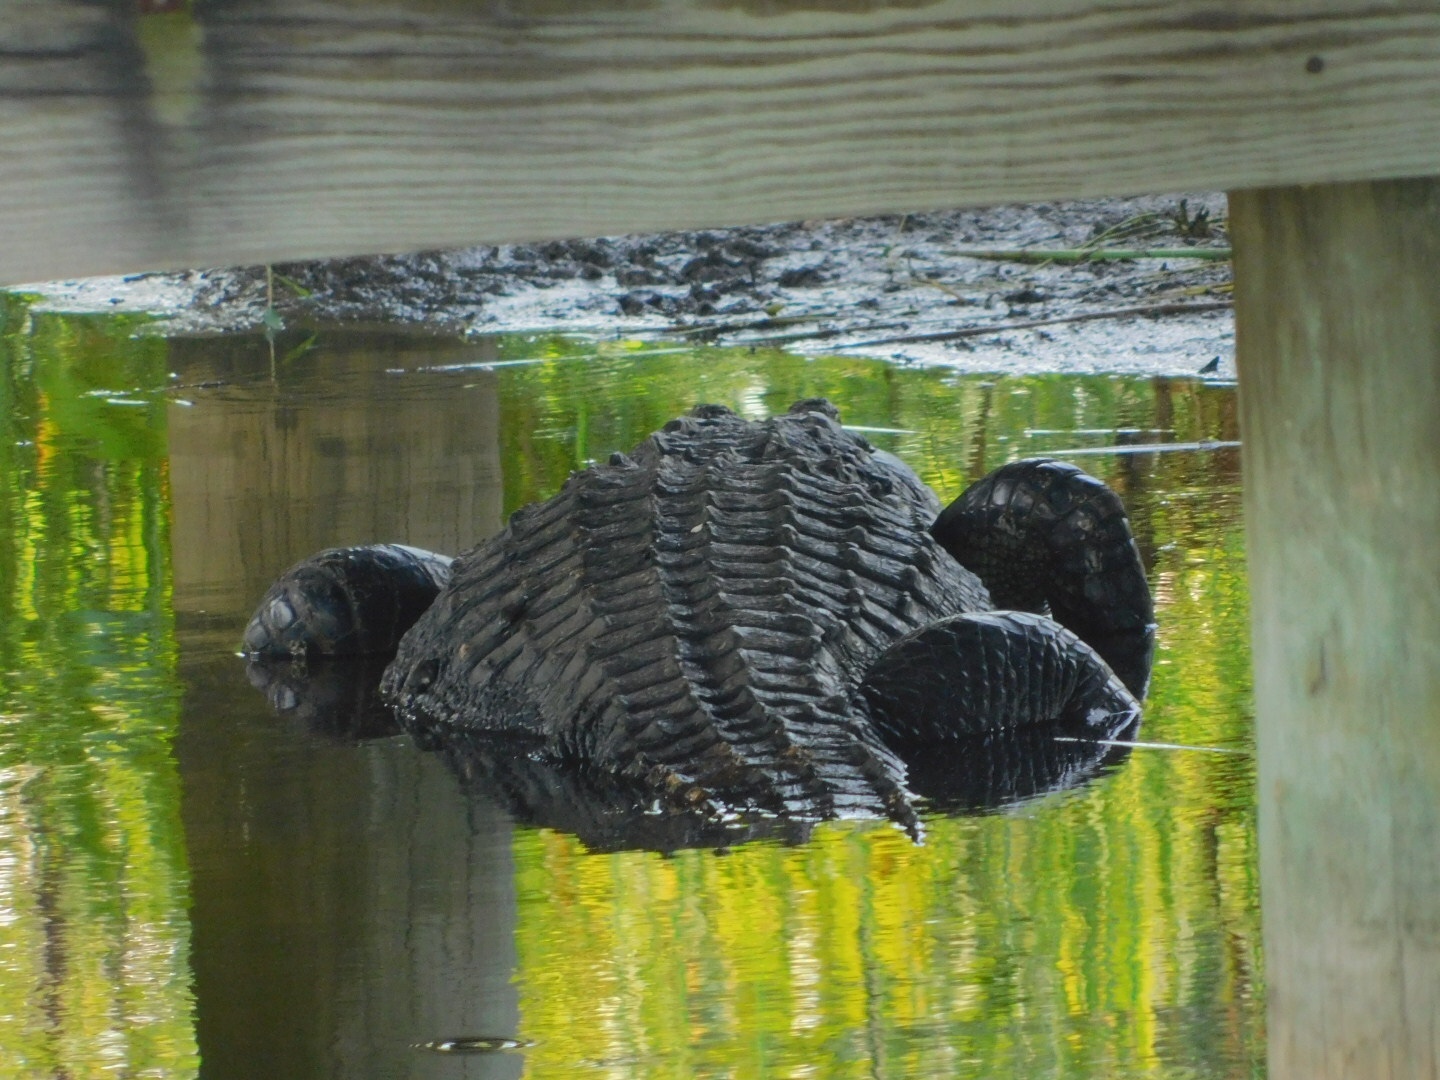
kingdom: Animalia
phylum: Chordata
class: Crocodylia
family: Alligatoridae
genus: Alligator
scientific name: Alligator mississippiensis
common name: American alligator
